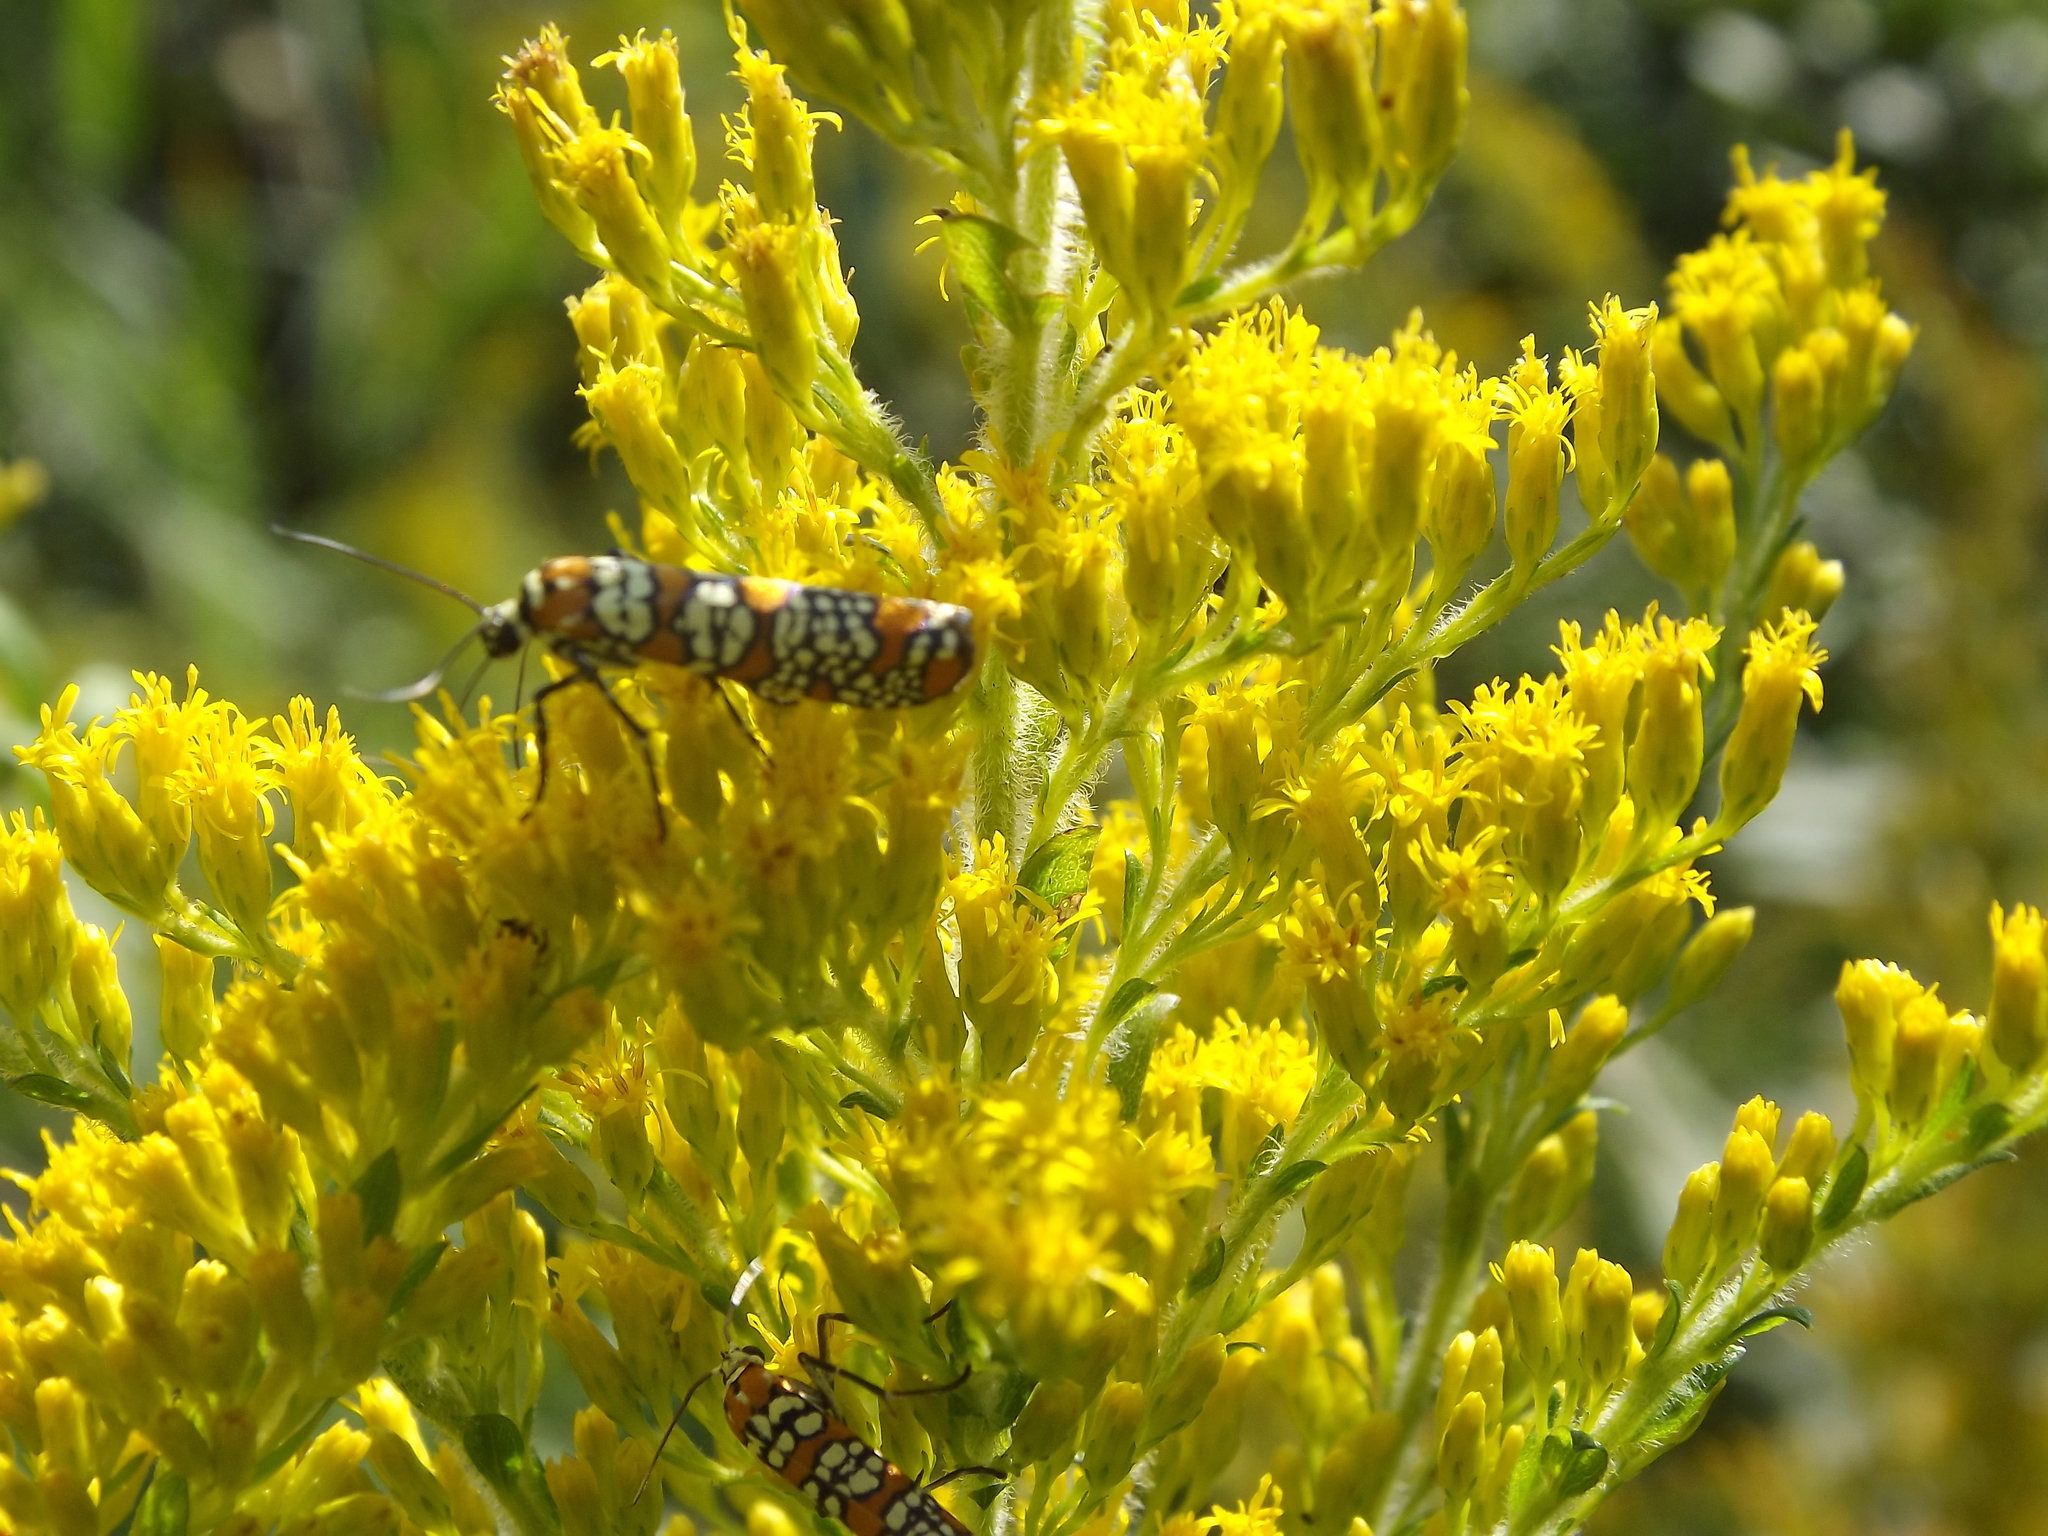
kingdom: Animalia
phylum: Arthropoda
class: Insecta
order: Lepidoptera
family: Attevidae
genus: Atteva
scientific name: Atteva punctella
